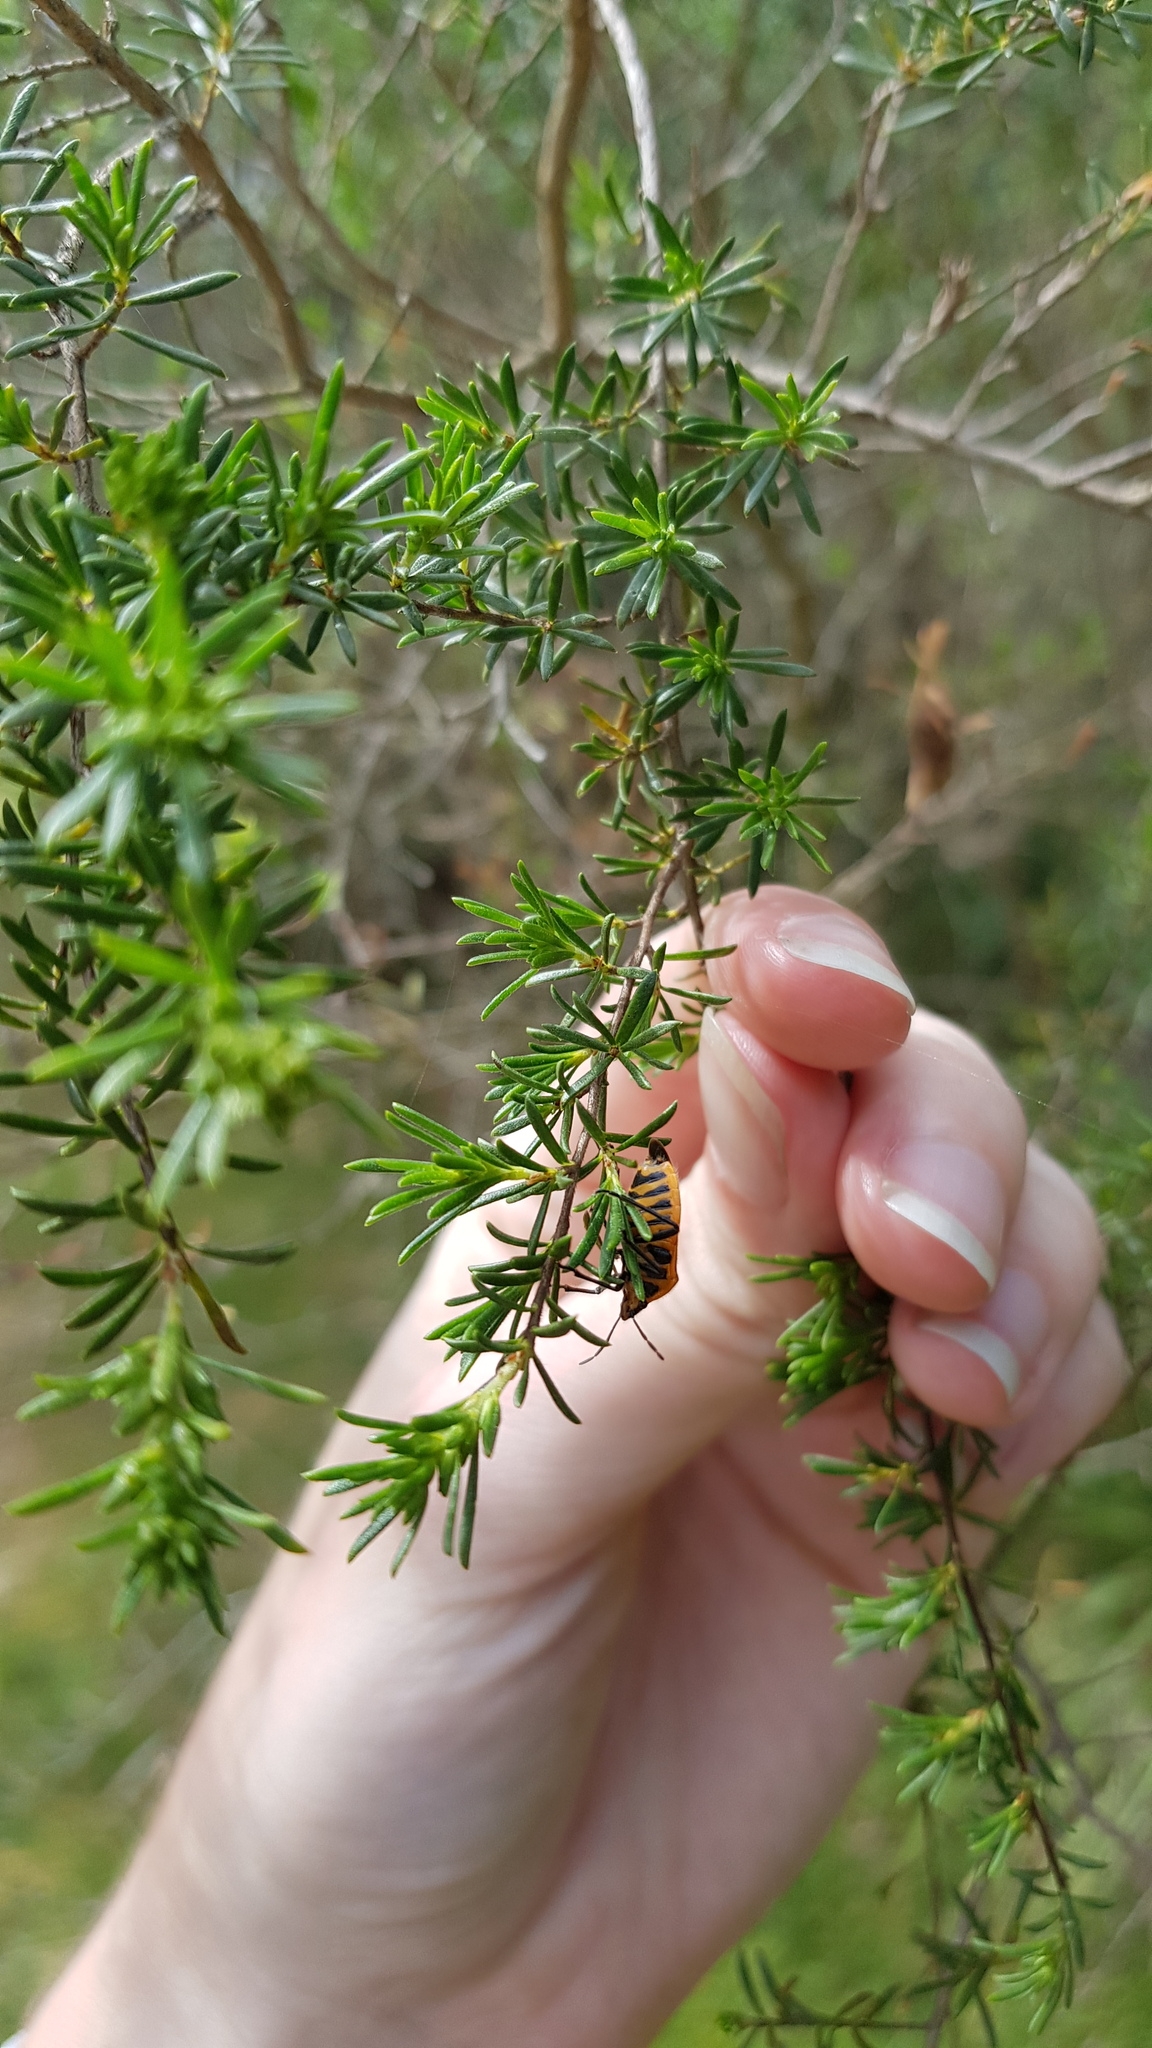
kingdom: Animalia
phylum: Arthropoda
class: Insecta
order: Hemiptera
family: Pentatomidae
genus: Agonoscelis
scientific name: Agonoscelis rutila
